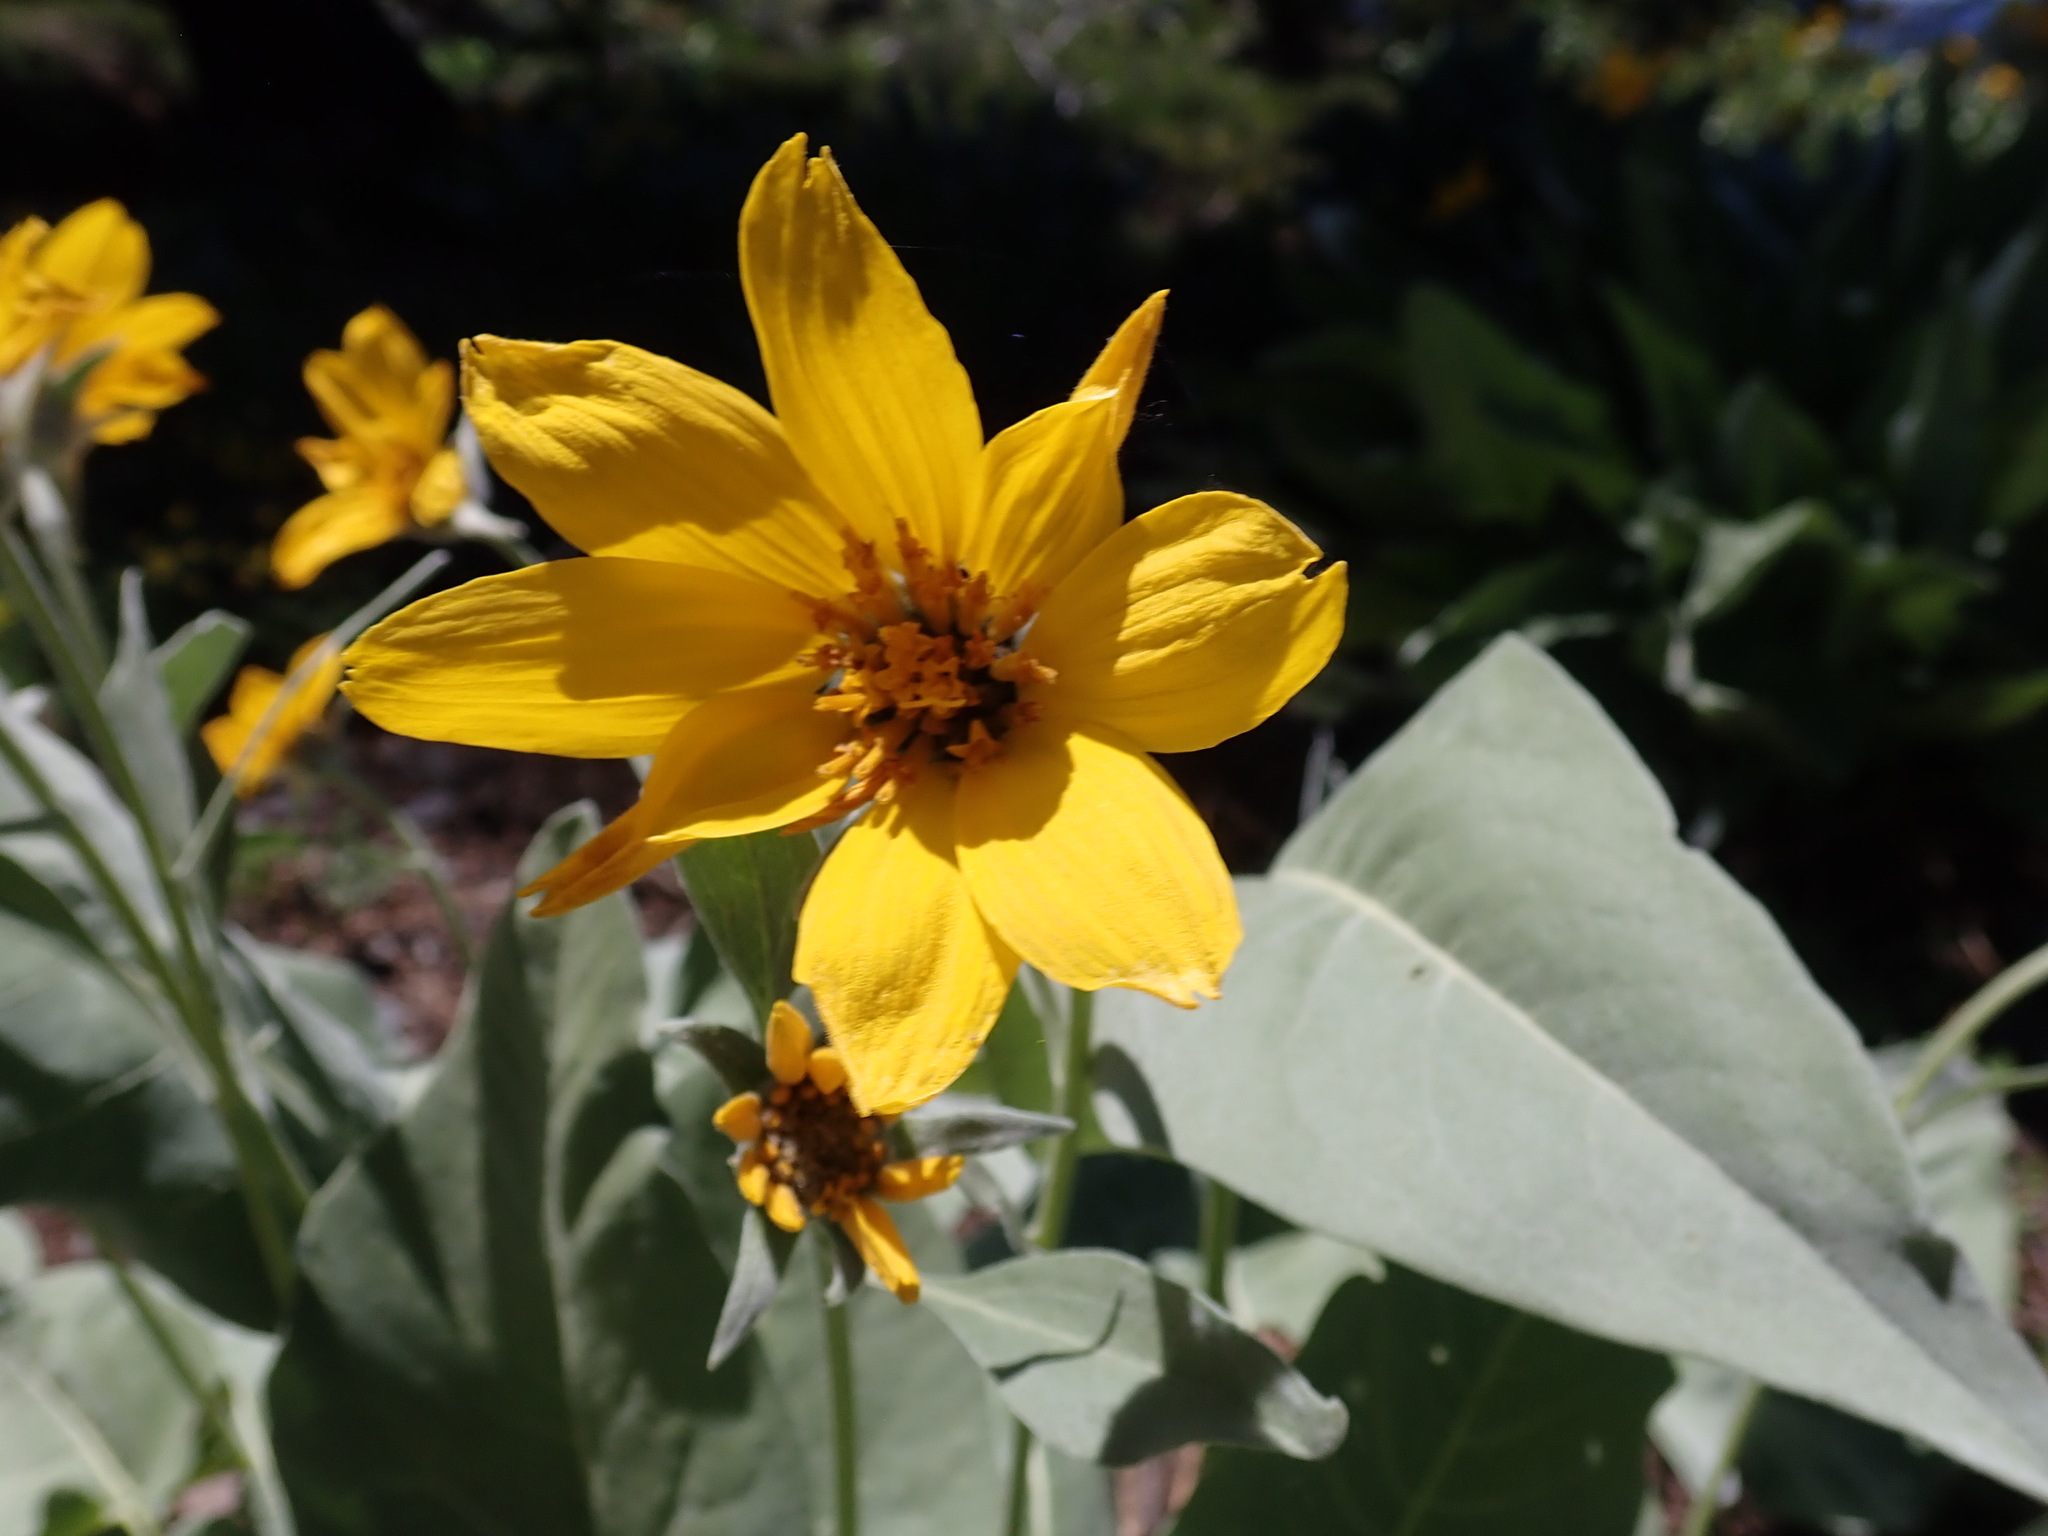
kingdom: Plantae
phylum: Tracheophyta
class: Magnoliopsida
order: Asterales
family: Asteraceae
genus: Wyethia
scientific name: Wyethia sagittata
